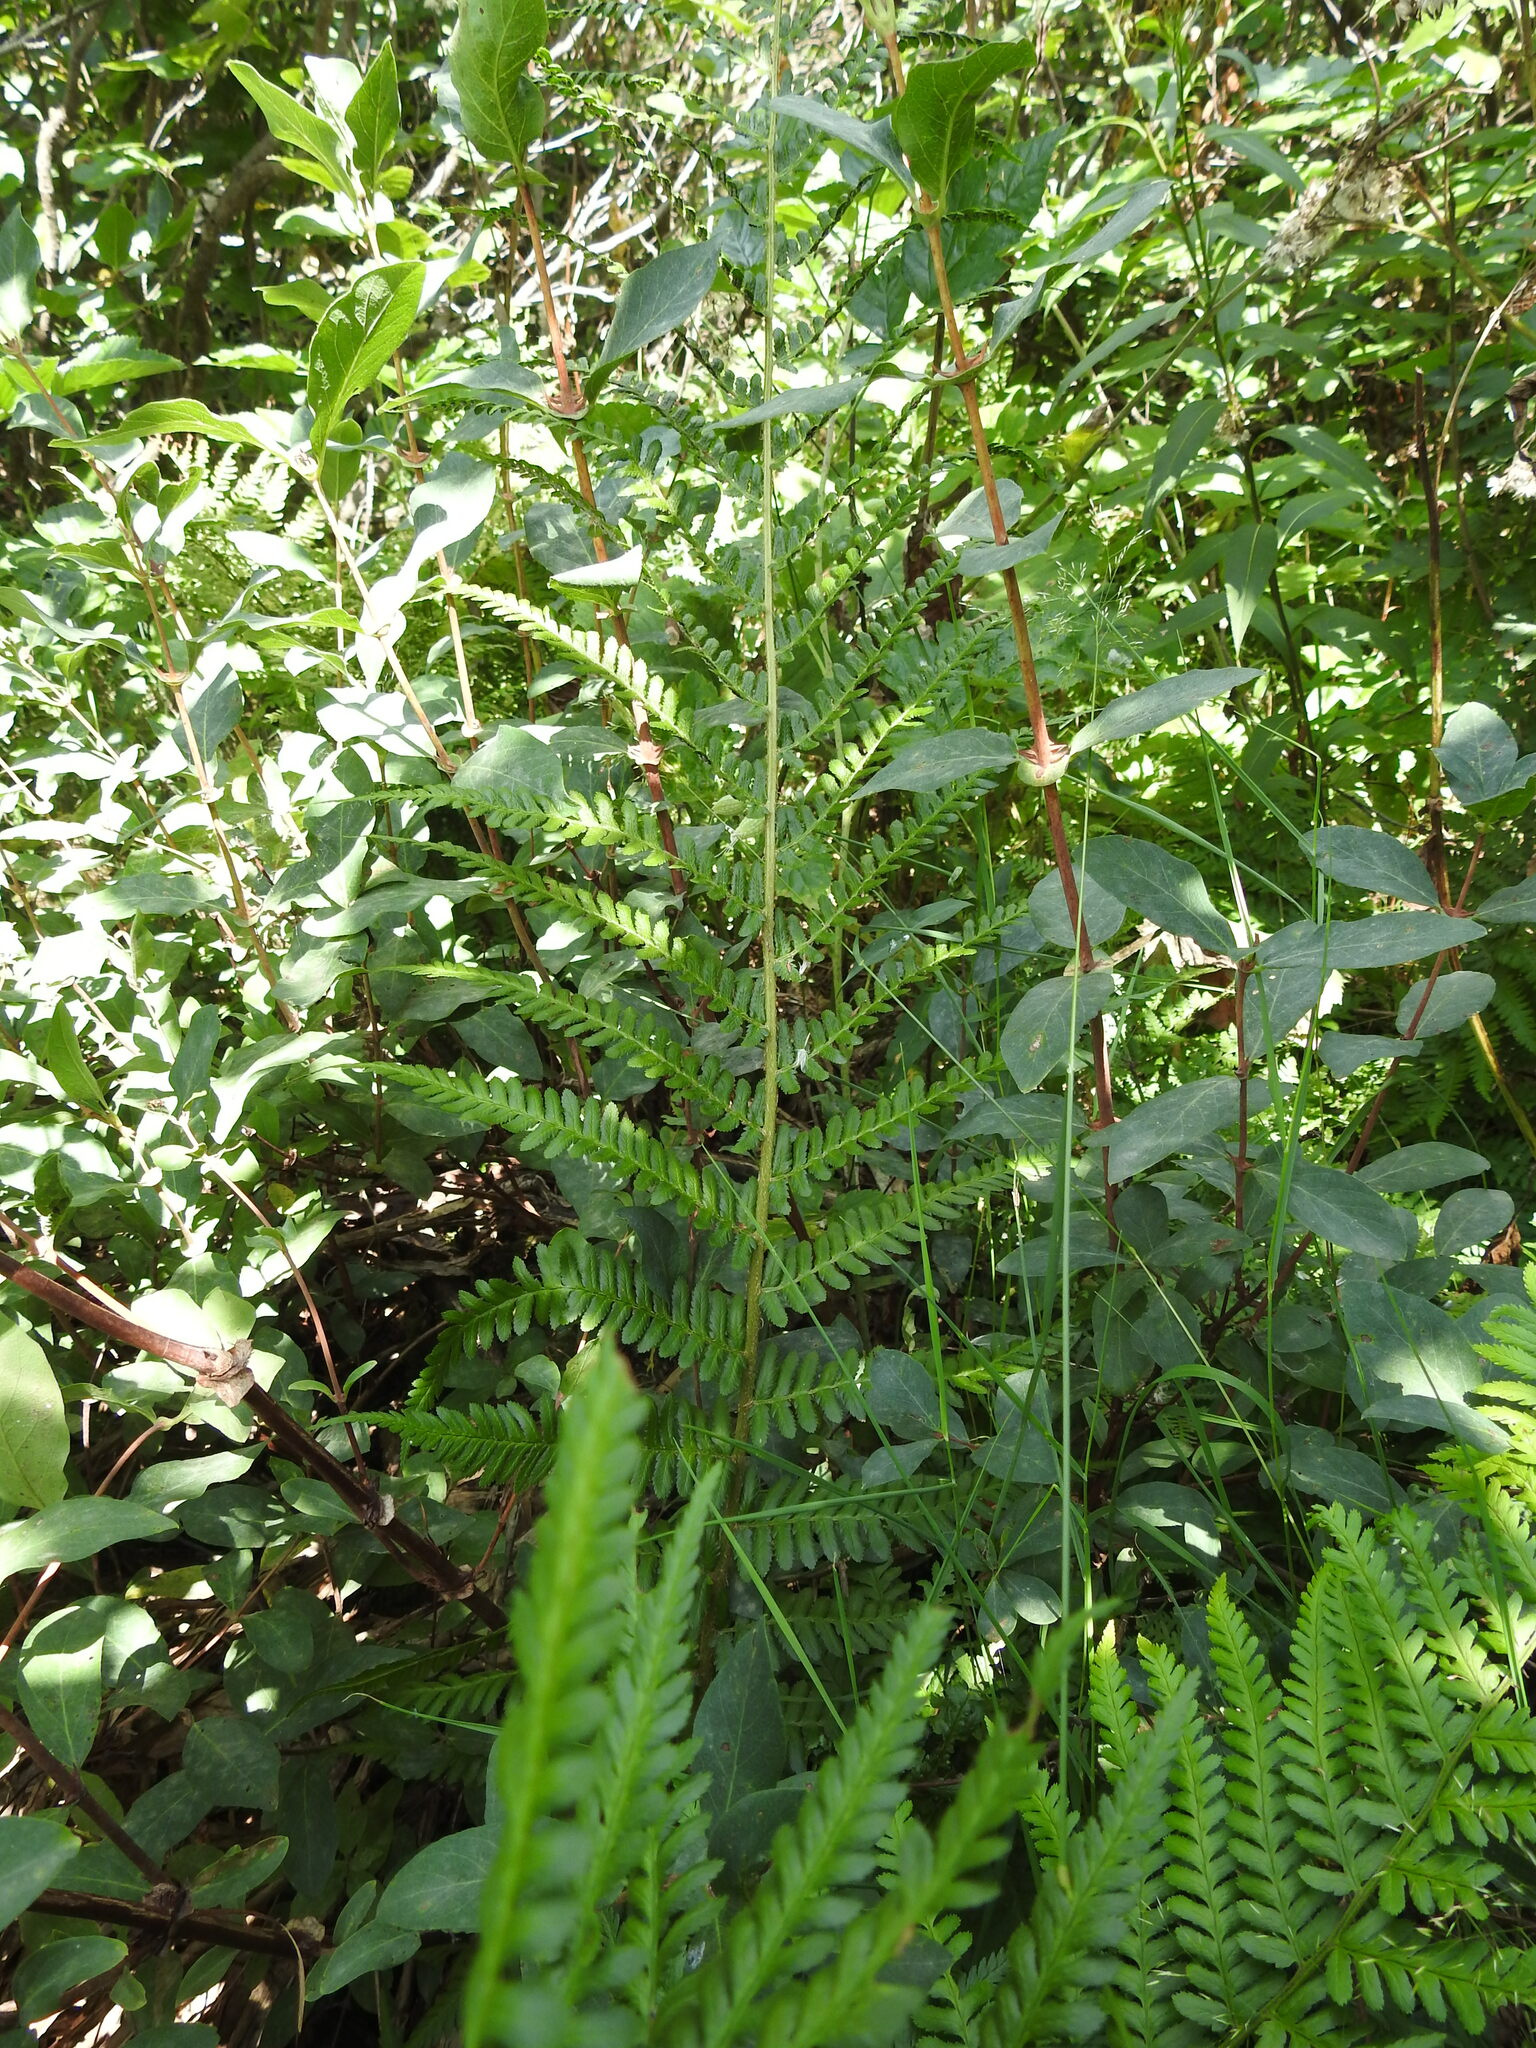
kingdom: Plantae
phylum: Tracheophyta
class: Polypodiopsida
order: Polypodiales
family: Dryopteridaceae
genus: Dryopteris
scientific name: Dryopteris filix-mas
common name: Male fern
